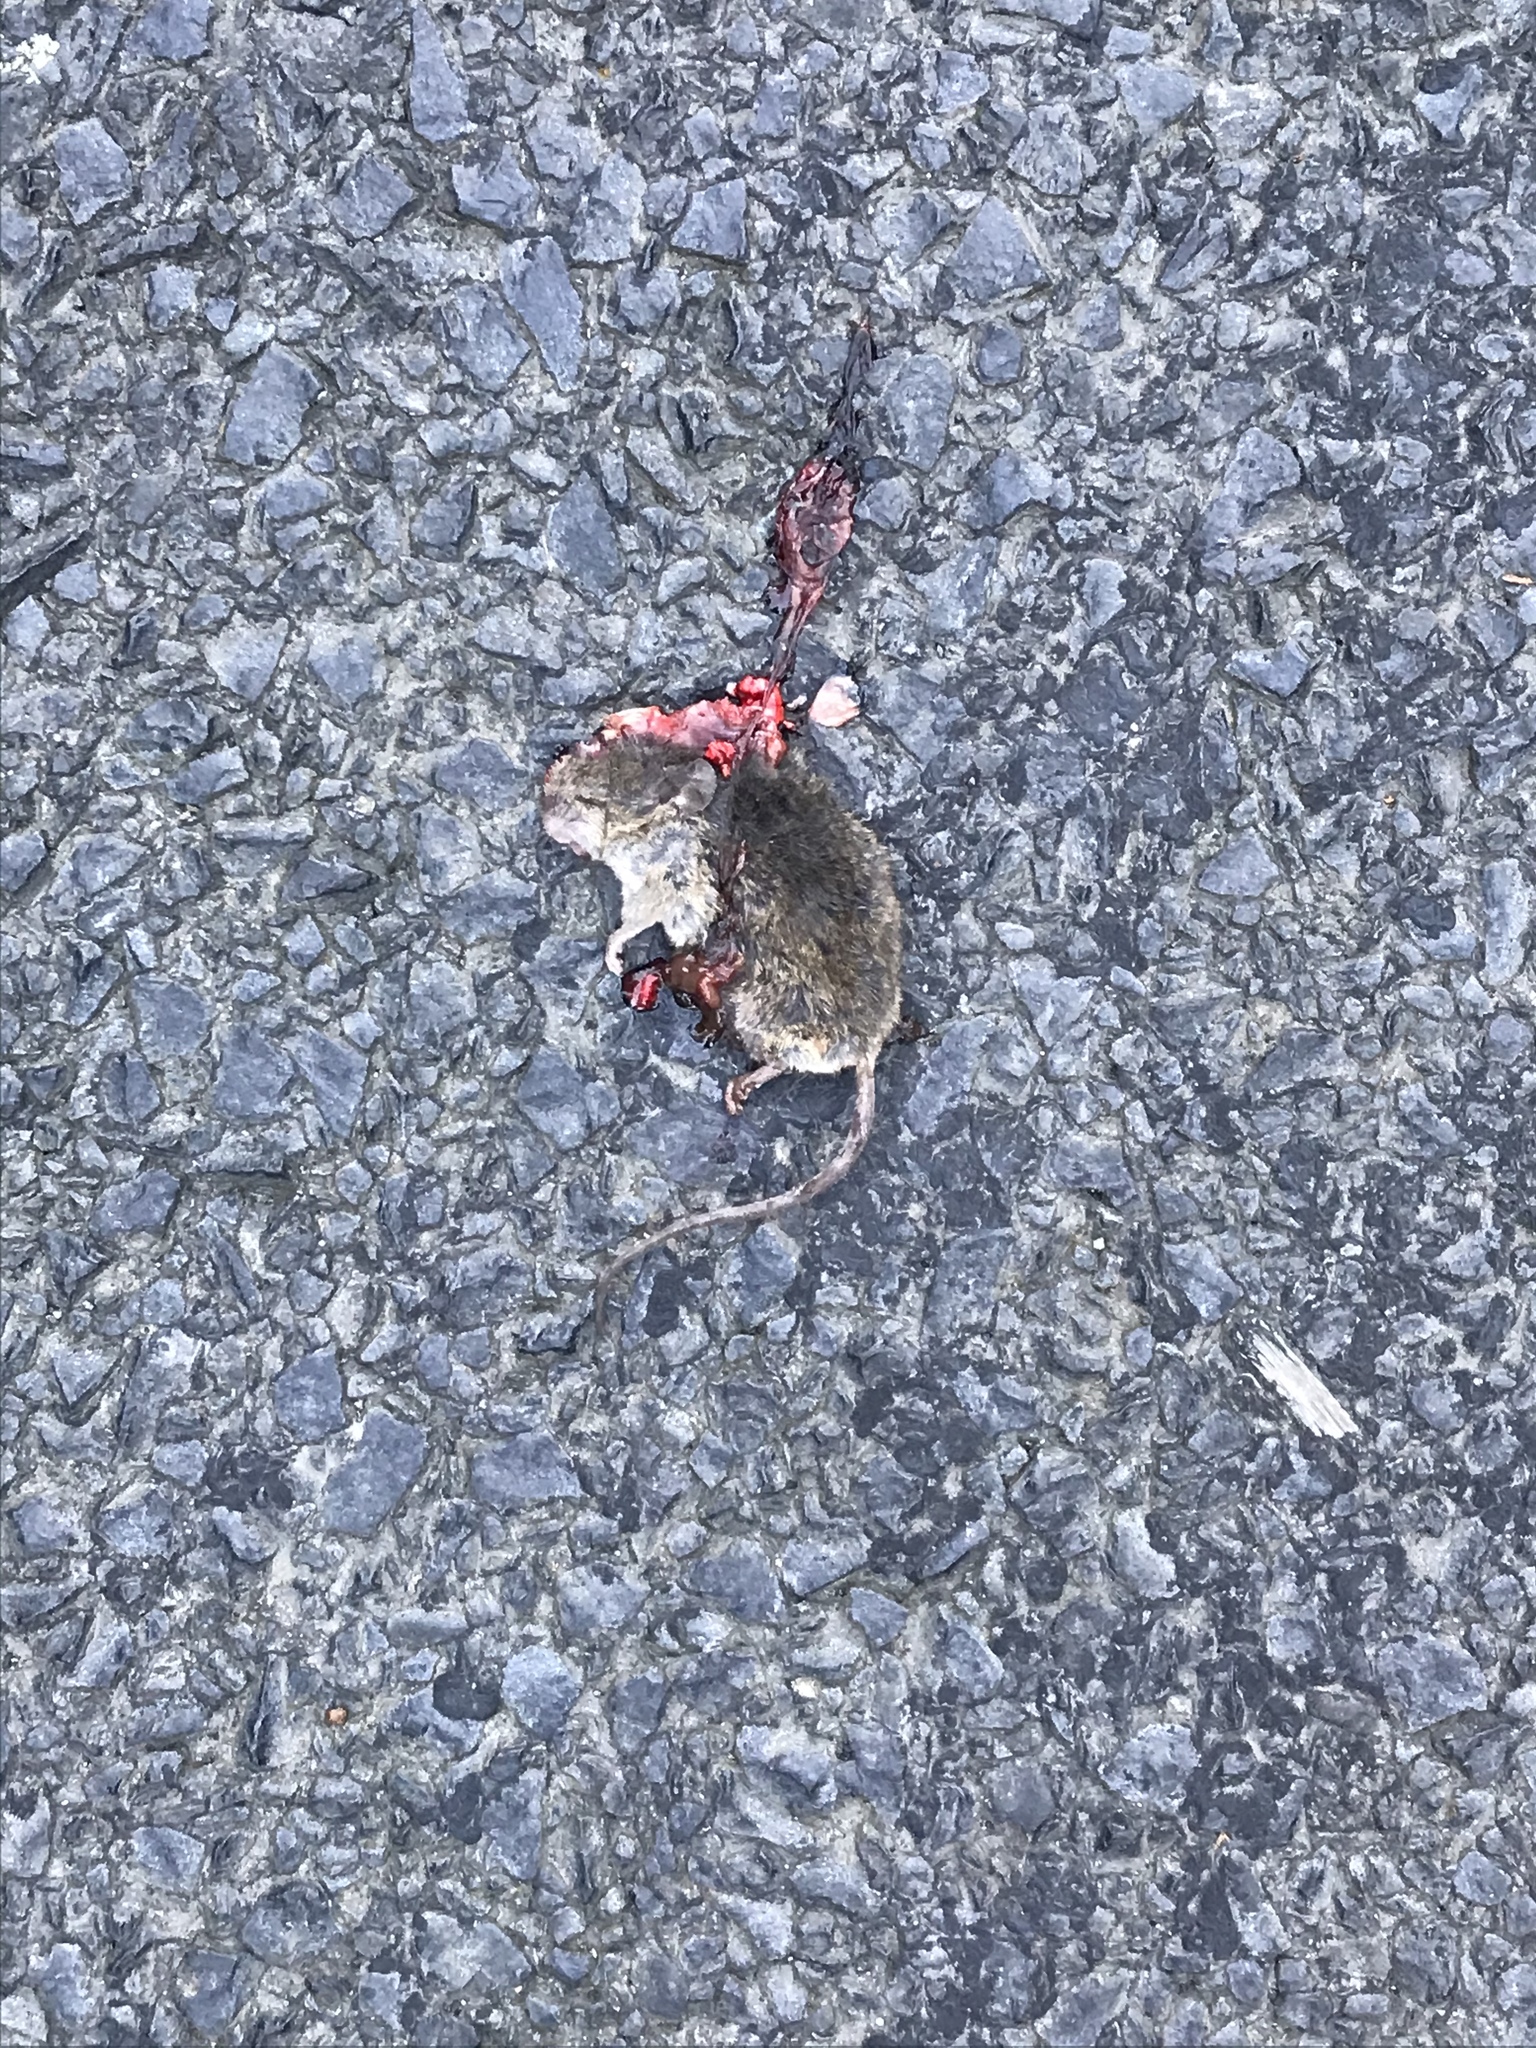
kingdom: Animalia
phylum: Chordata
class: Mammalia
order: Rodentia
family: Muridae
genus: Mus
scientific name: Mus musculus
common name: House mouse
